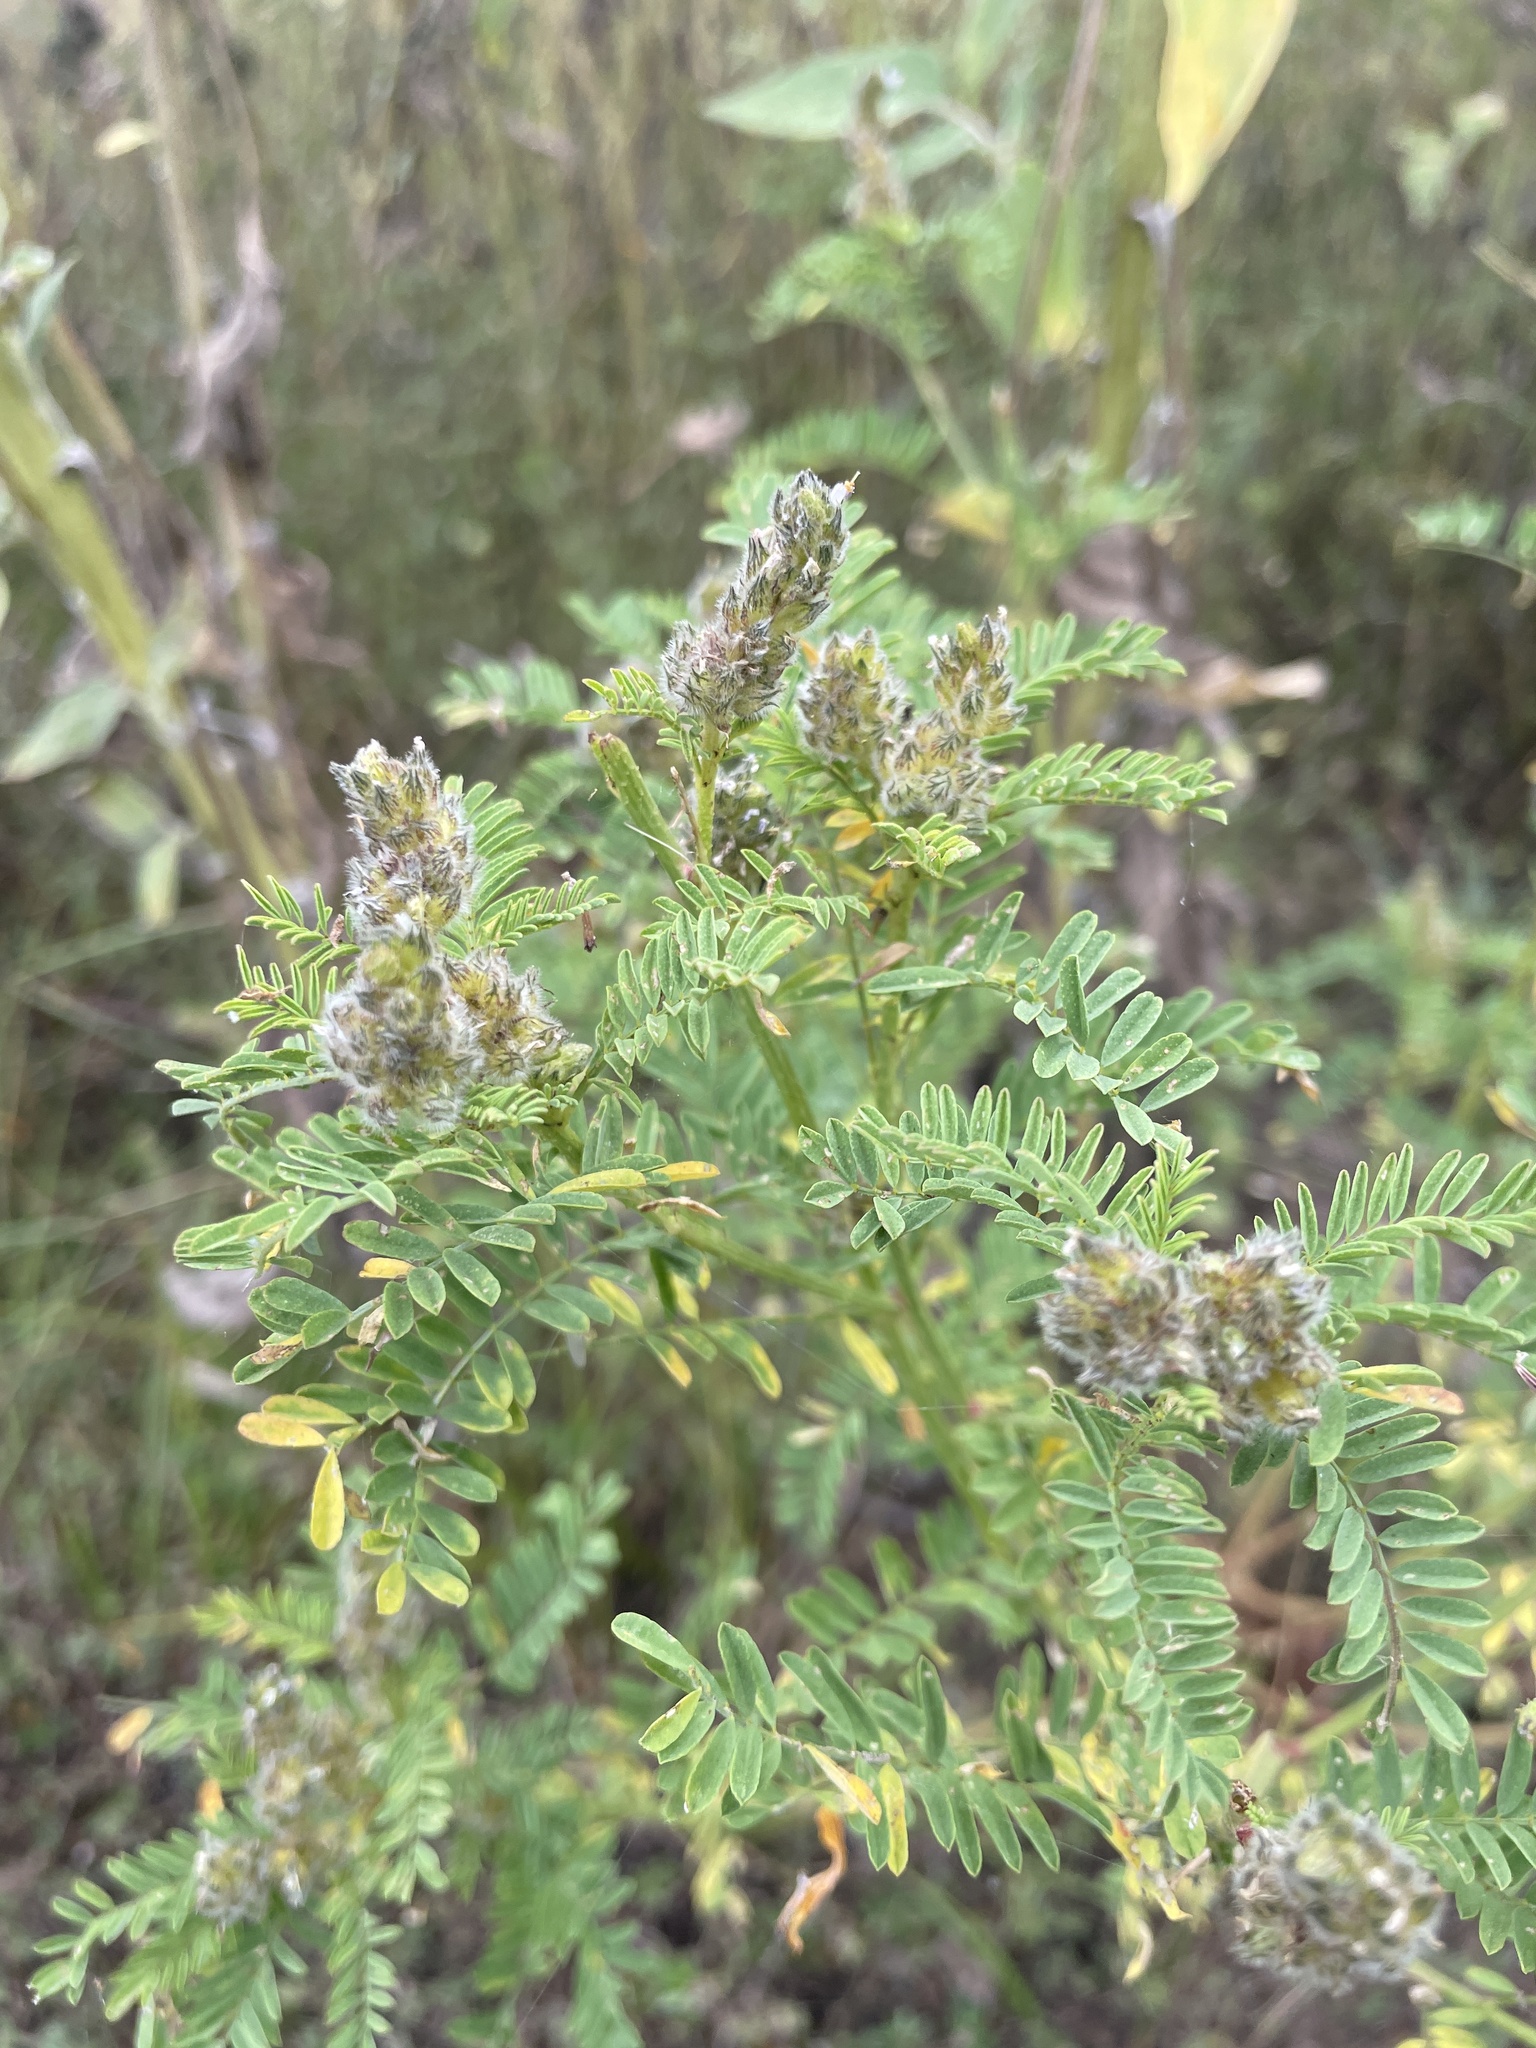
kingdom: Plantae
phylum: Tracheophyta
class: Magnoliopsida
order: Fabales
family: Fabaceae
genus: Dalea
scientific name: Dalea leporina
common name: Foxtail dalea
